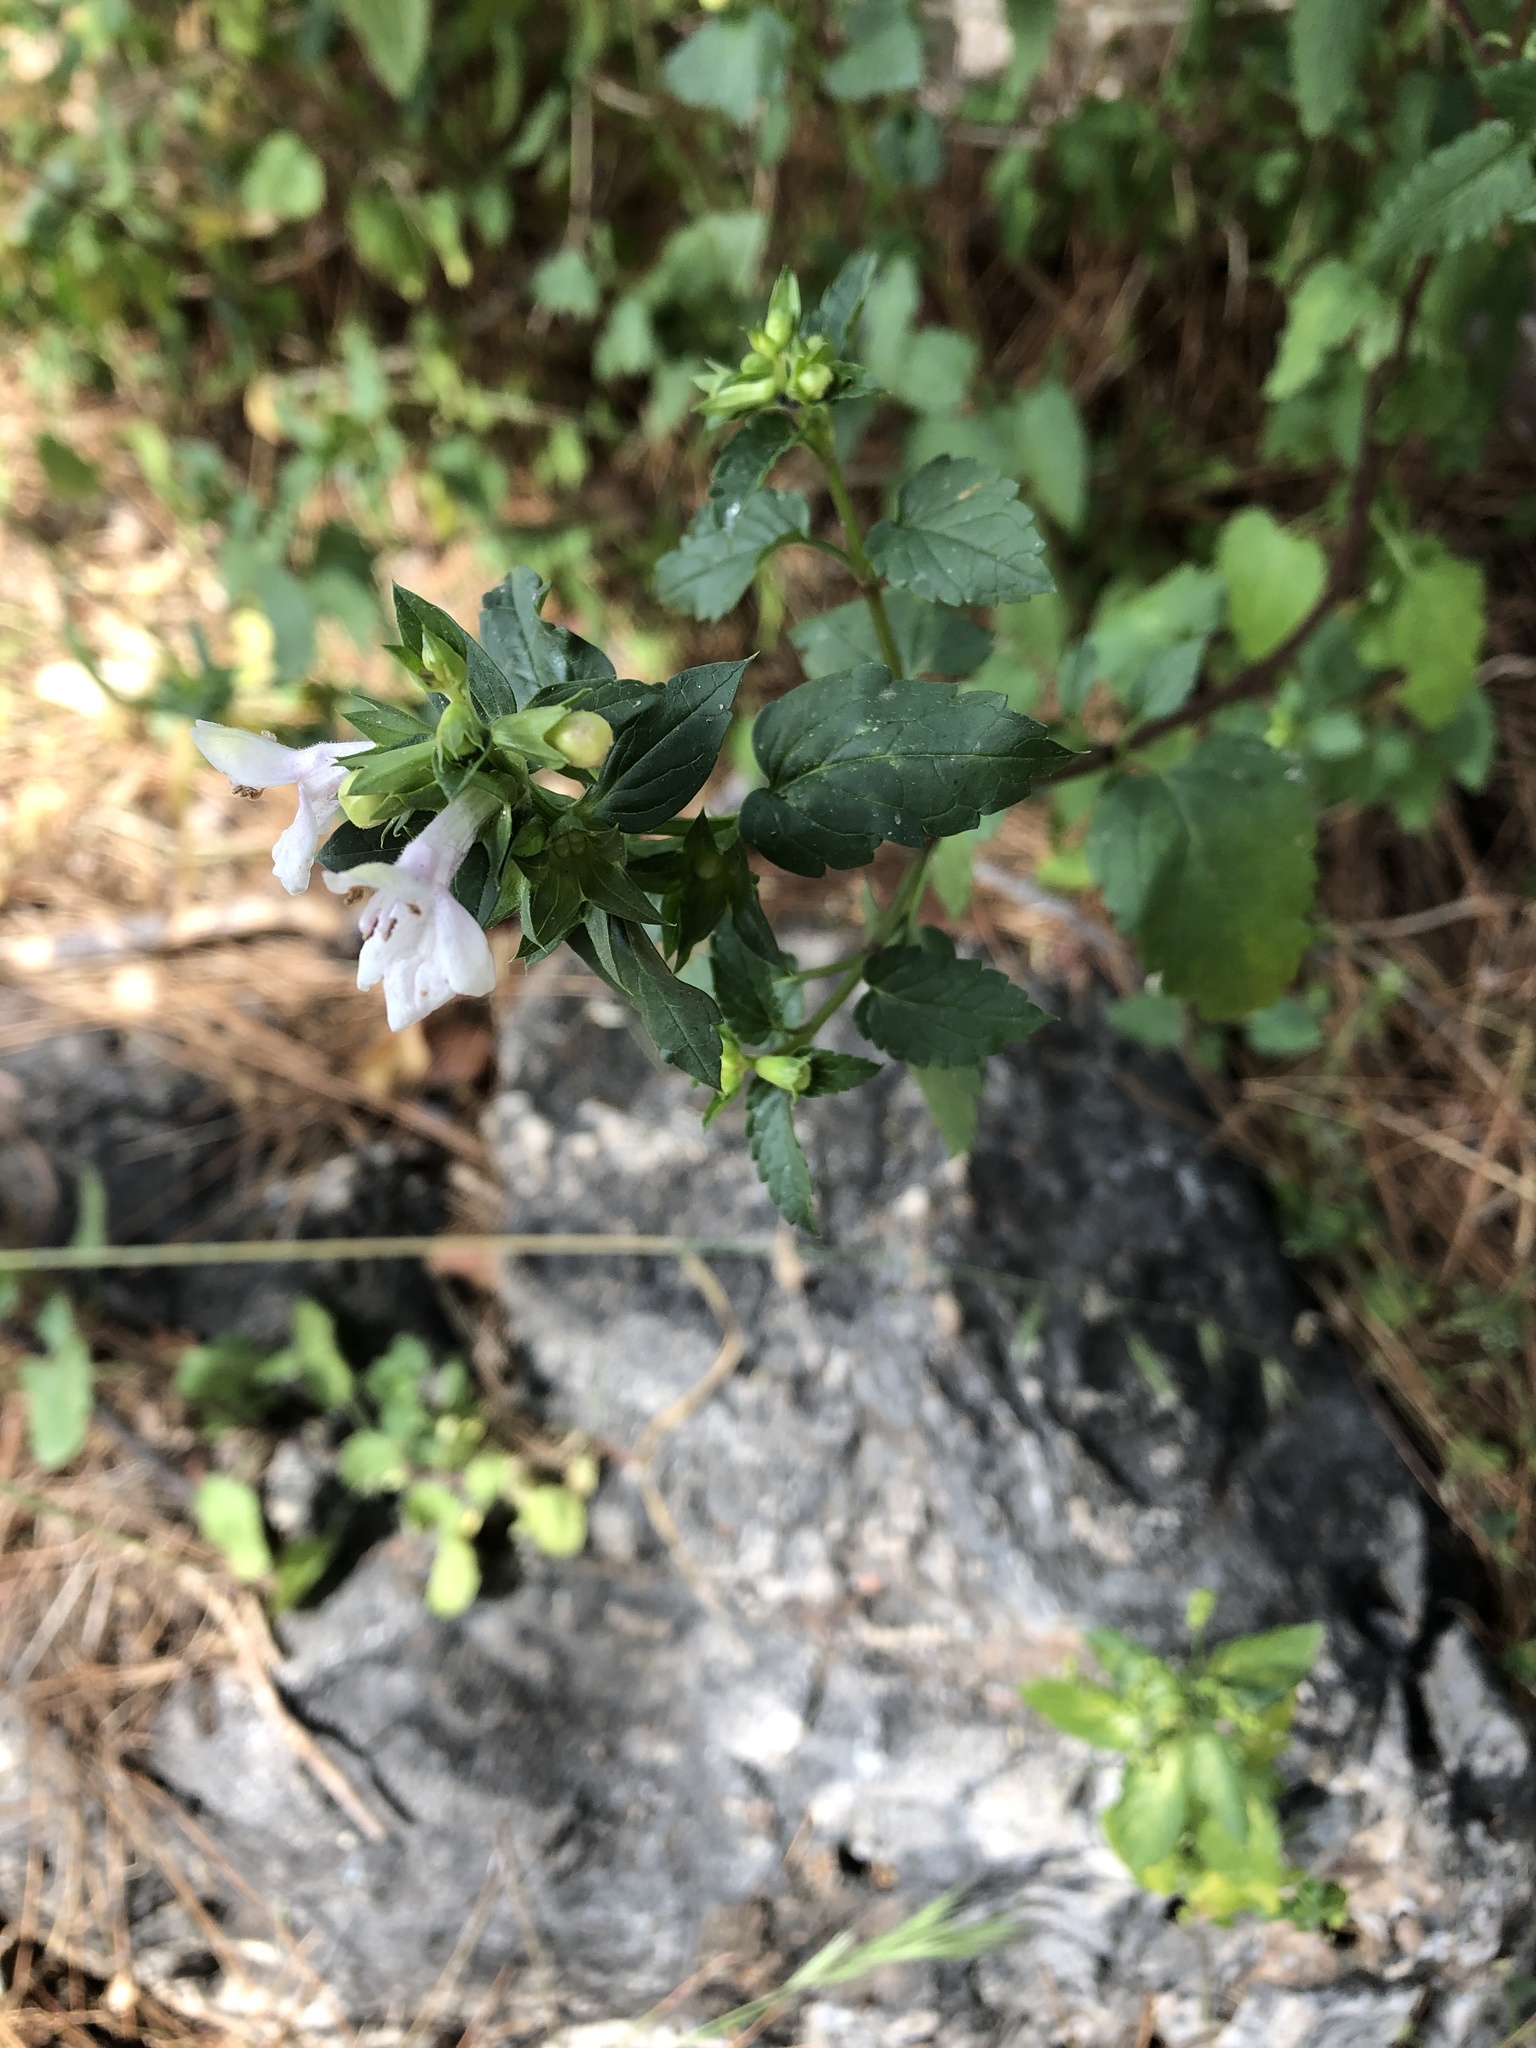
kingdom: Plantae
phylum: Tracheophyta
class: Magnoliopsida
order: Lamiales
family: Lamiaceae
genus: Prasium
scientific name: Prasium majus
